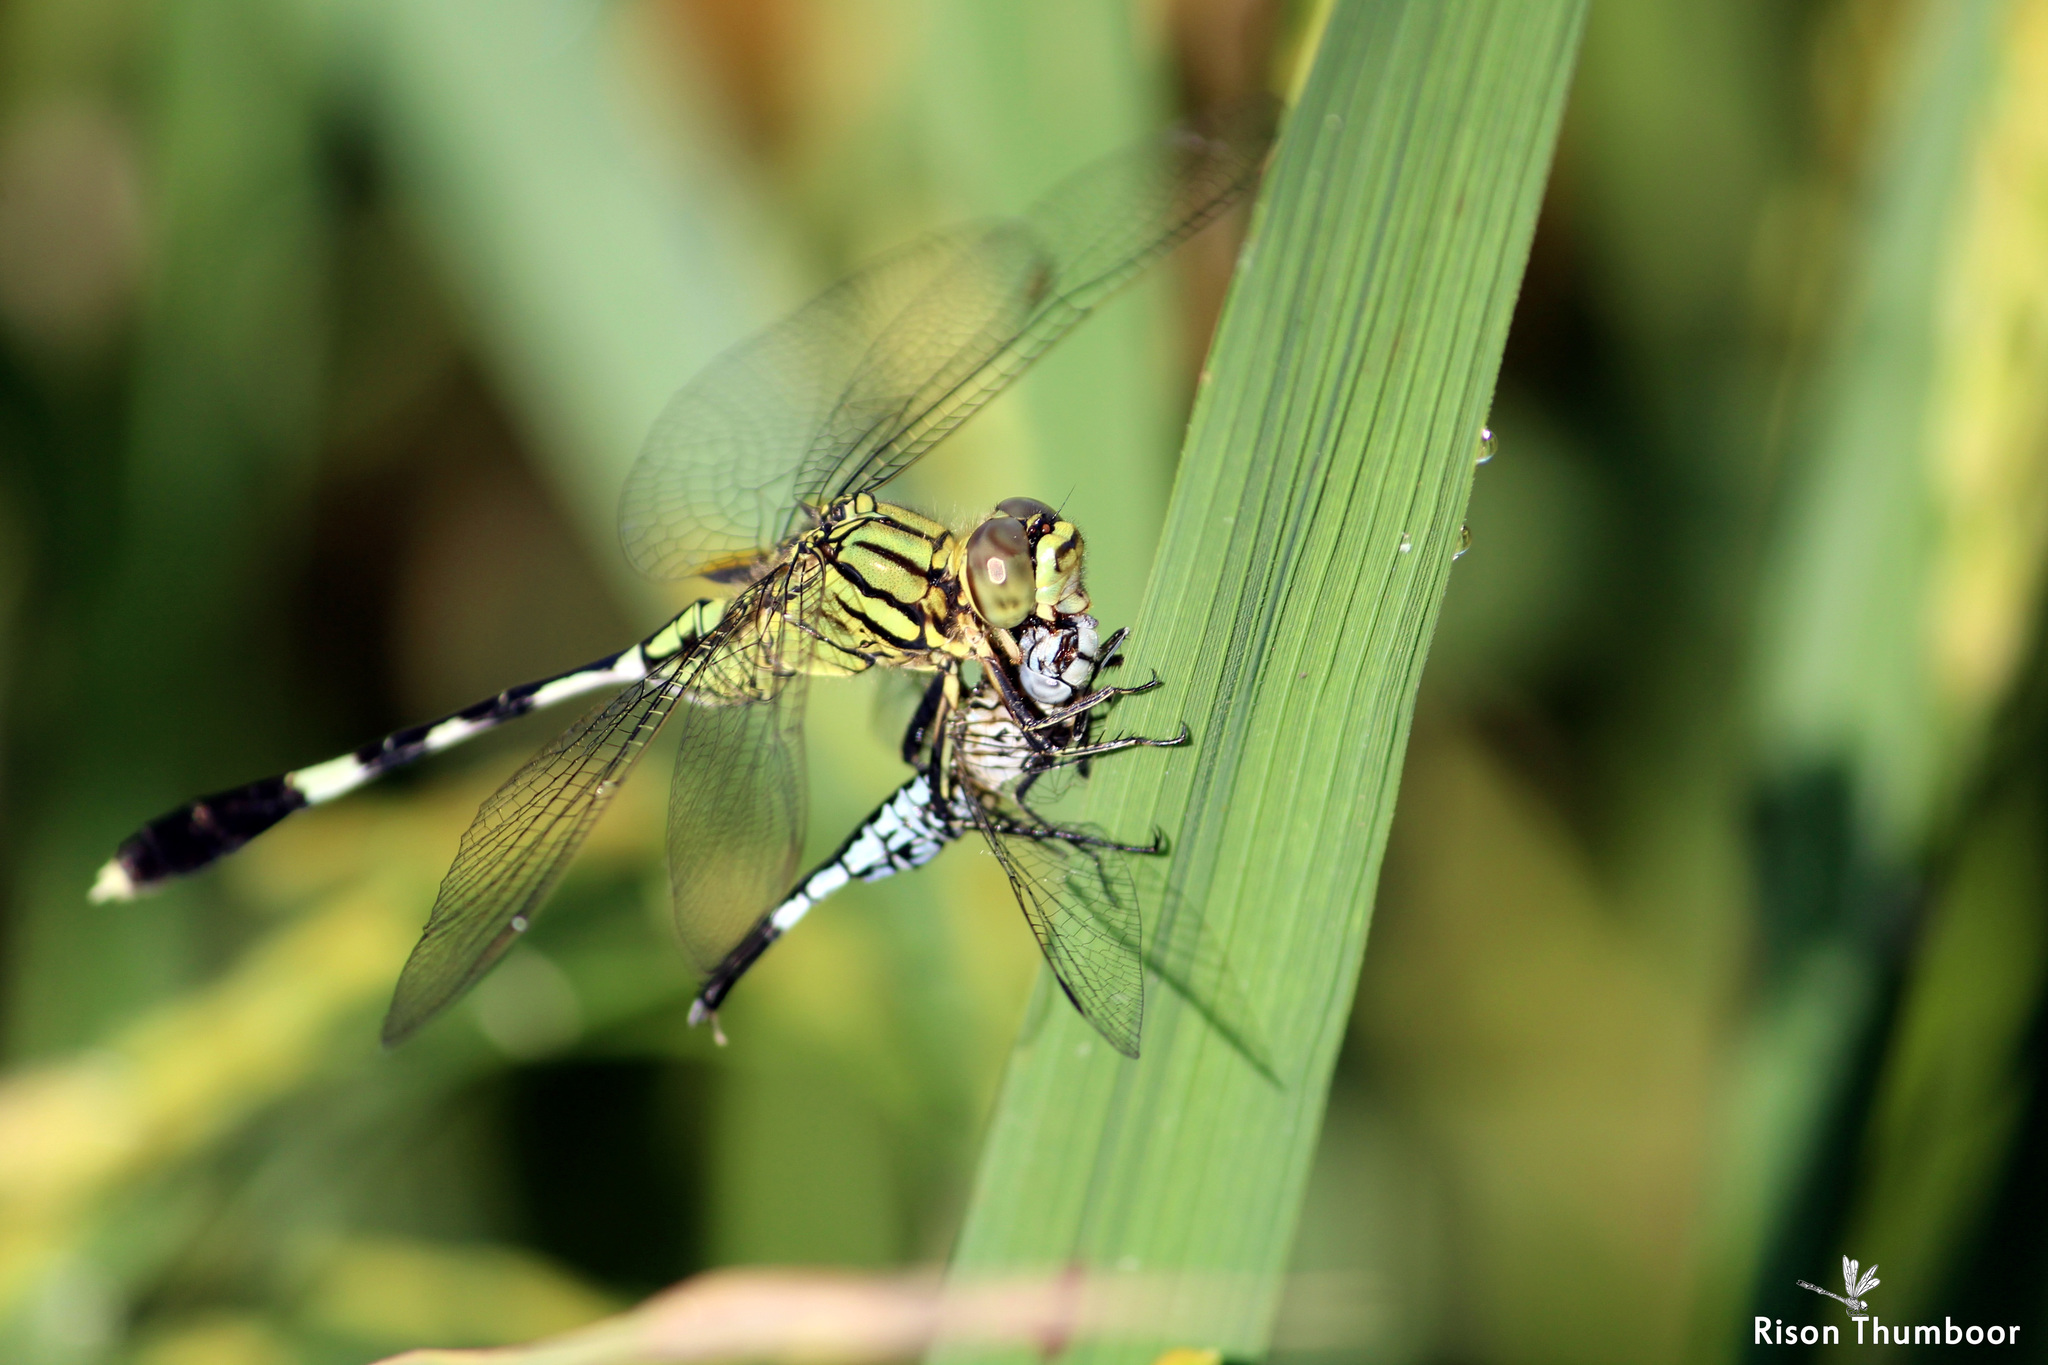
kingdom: Animalia
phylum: Arthropoda
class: Insecta
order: Odonata
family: Libellulidae
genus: Orthetrum
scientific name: Orthetrum sabina
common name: Slender skimmer
